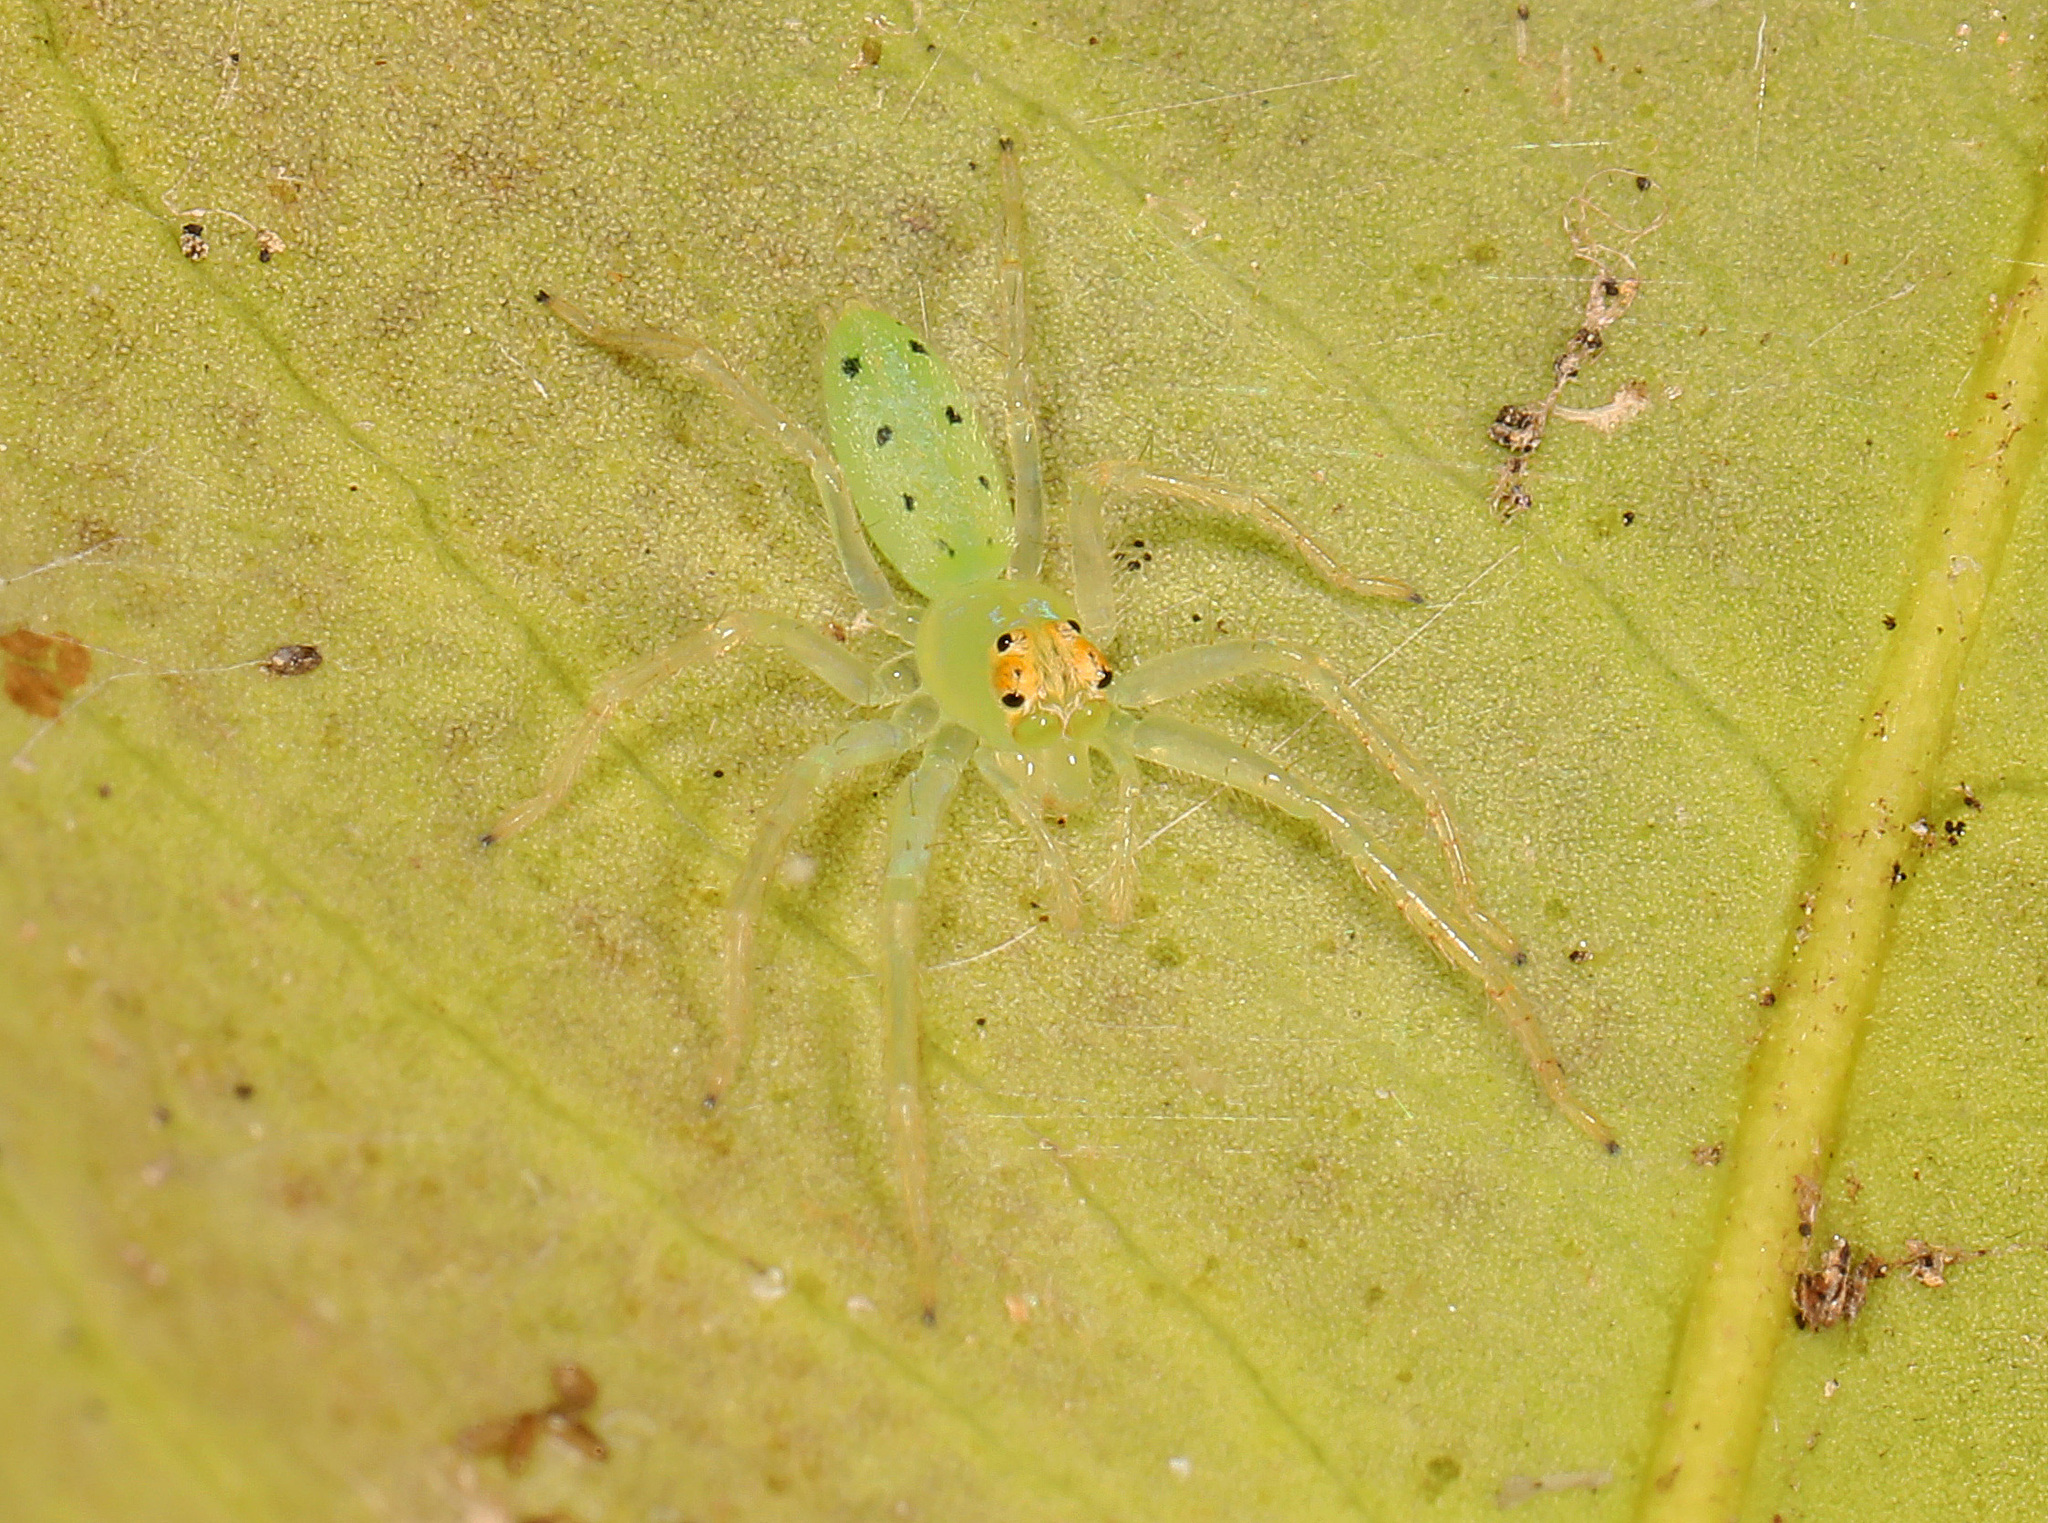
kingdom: Animalia
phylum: Arthropoda
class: Arachnida
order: Araneae
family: Salticidae
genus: Lyssomanes
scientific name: Lyssomanes viridis
